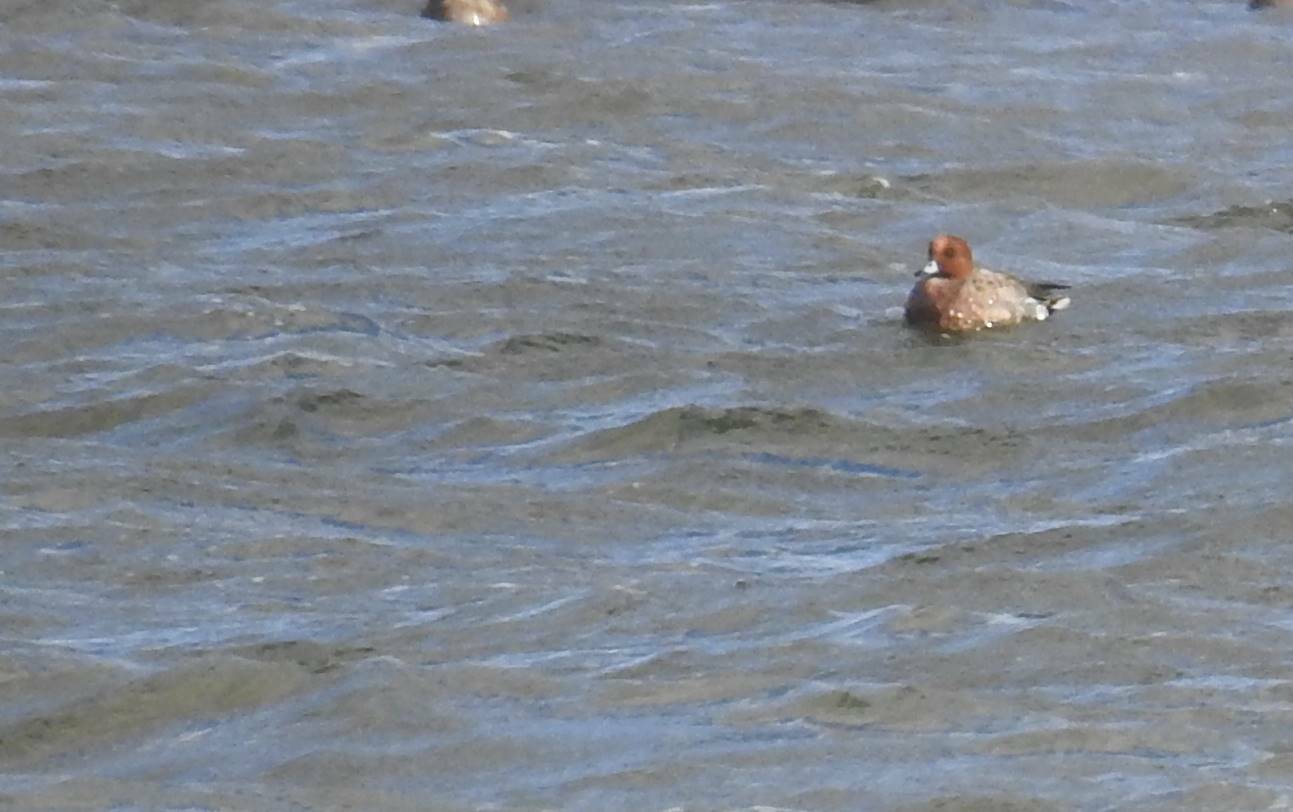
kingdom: Animalia
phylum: Chordata
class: Aves
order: Anseriformes
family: Anatidae
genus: Mareca
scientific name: Mareca penelope
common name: Eurasian wigeon
